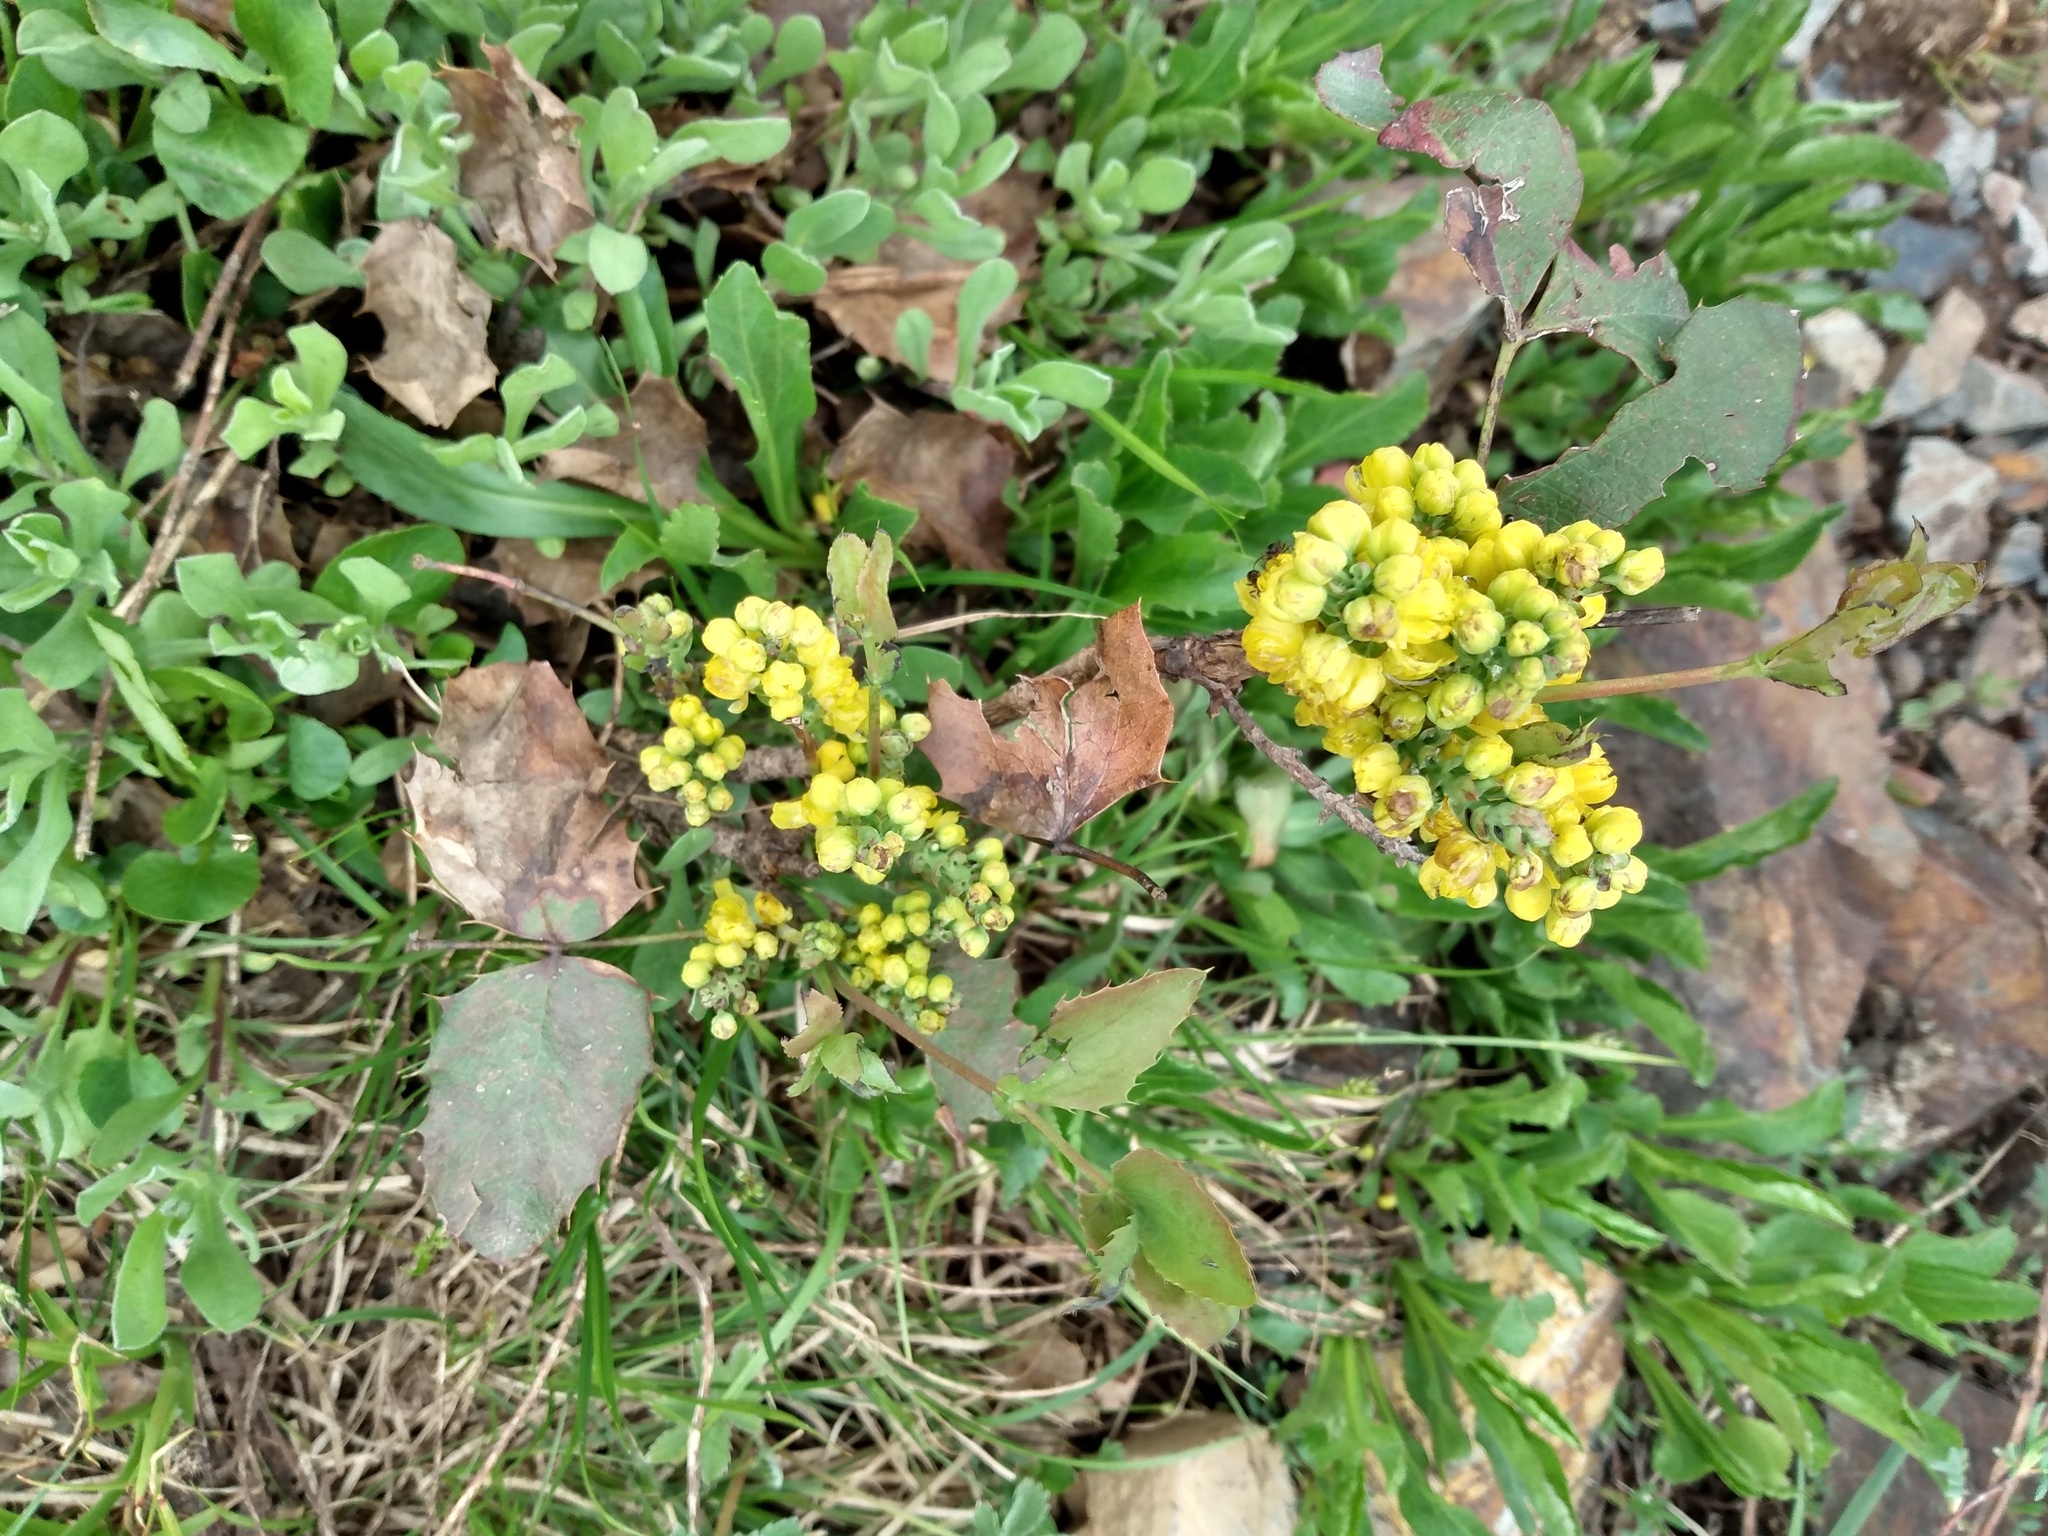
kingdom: Plantae
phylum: Tracheophyta
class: Magnoliopsida
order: Ranunculales
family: Berberidaceae
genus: Mahonia
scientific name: Mahonia repens
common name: Creeping oregon-grape
